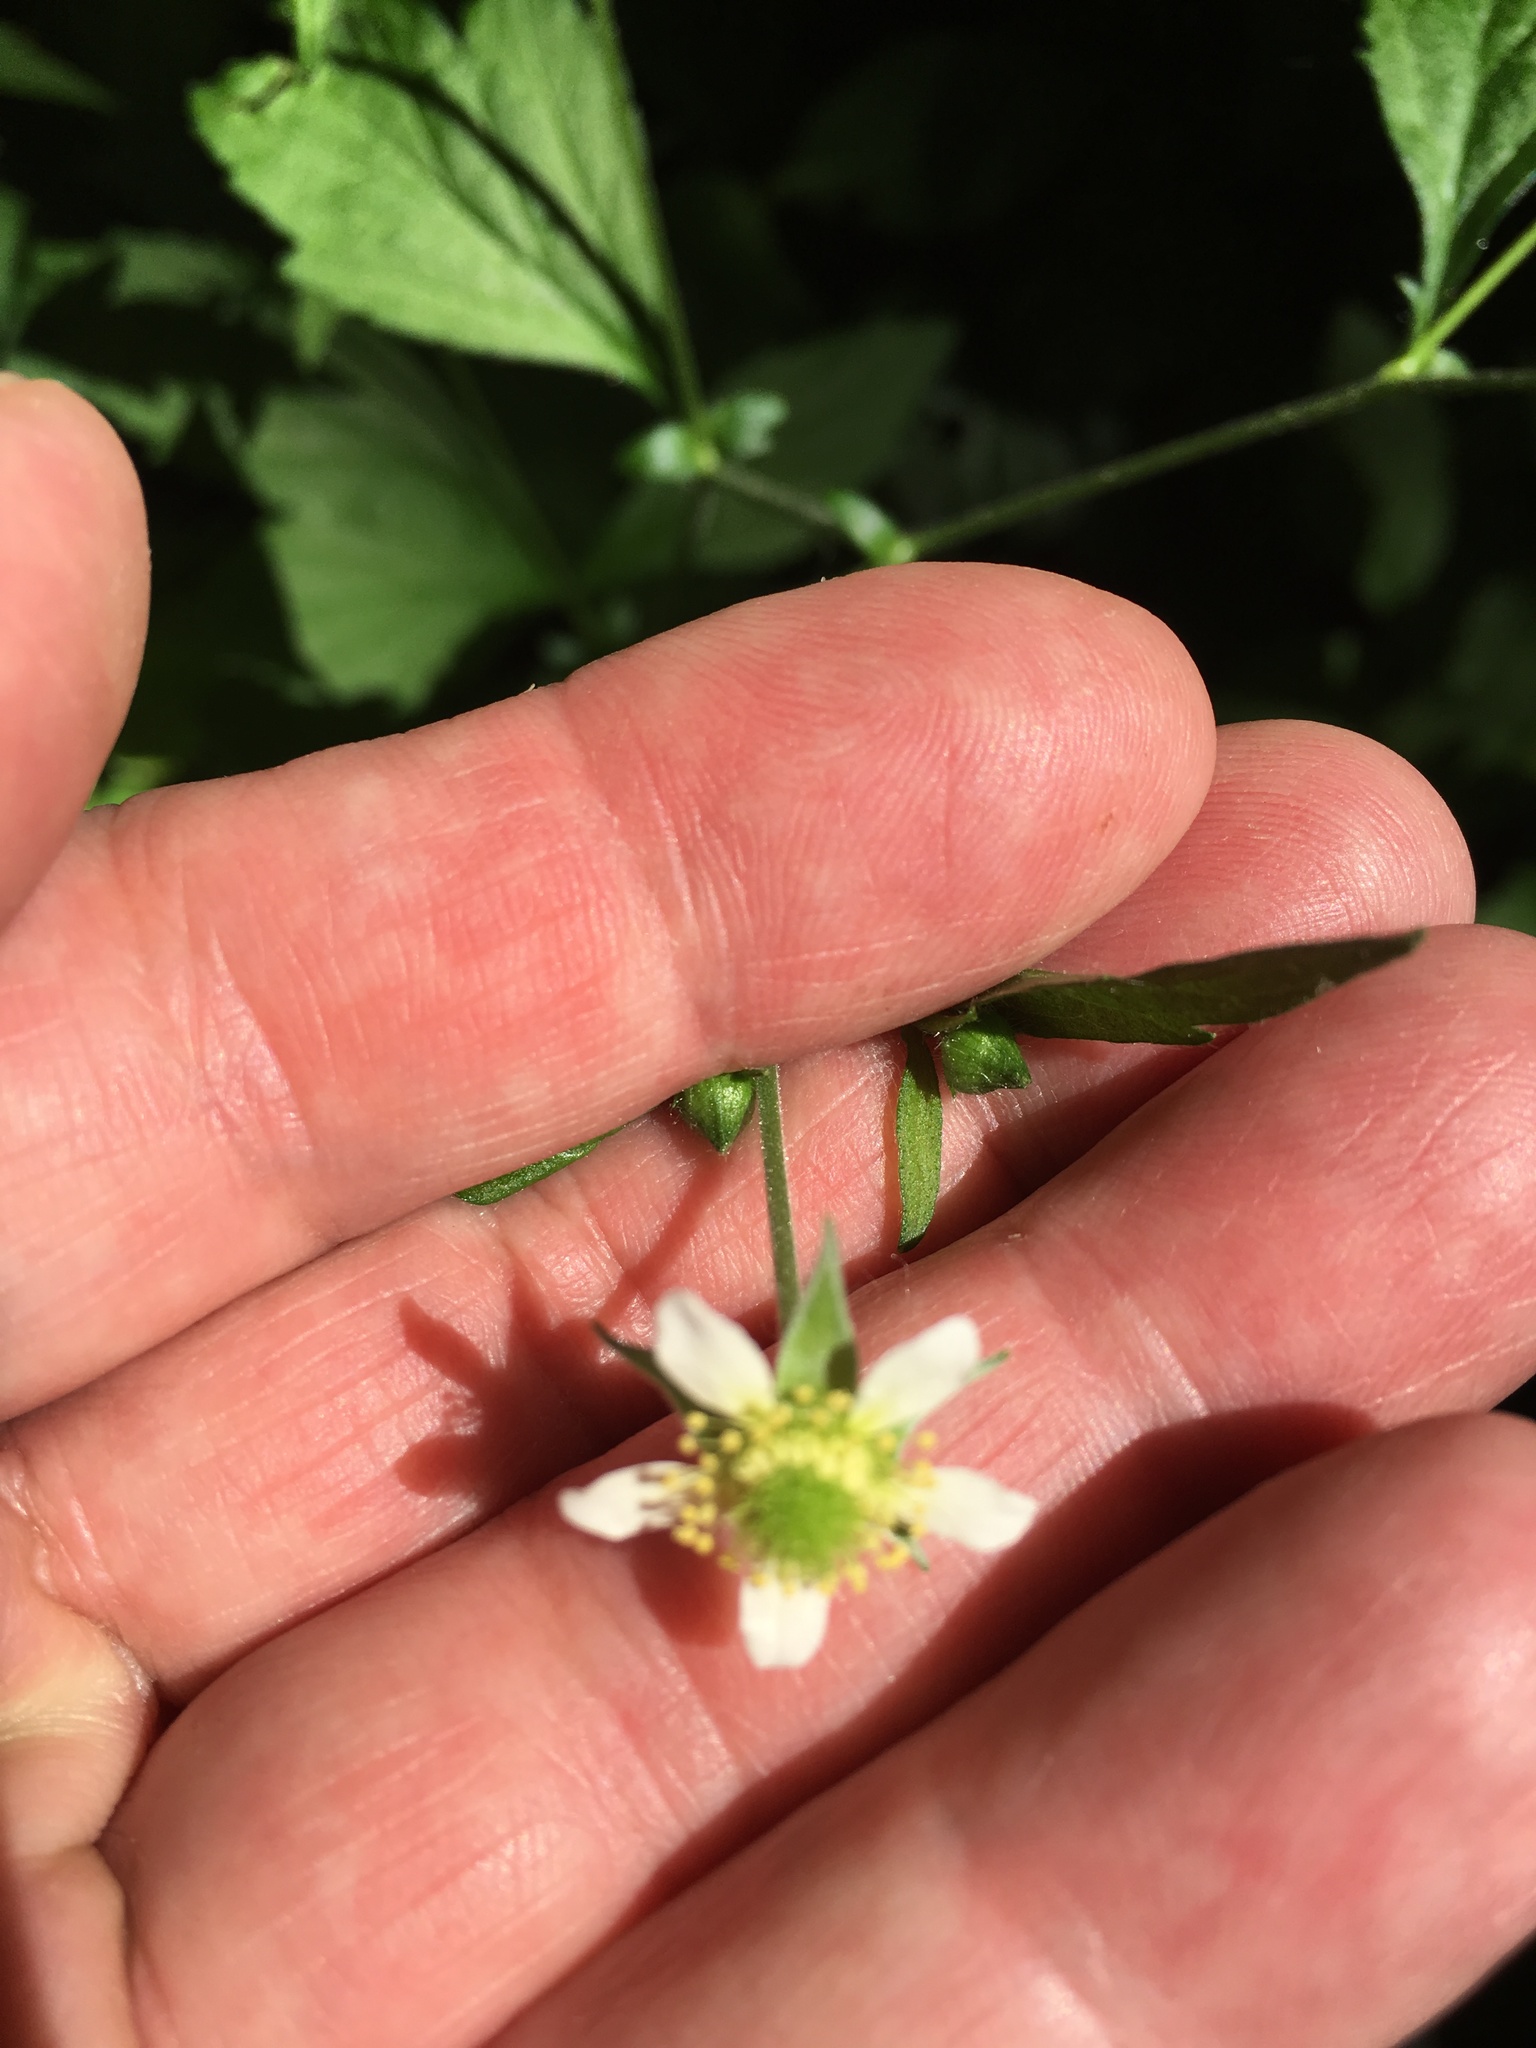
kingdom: Plantae
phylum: Tracheophyta
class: Magnoliopsida
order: Rosales
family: Rosaceae
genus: Geum
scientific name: Geum canadense
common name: White avens
